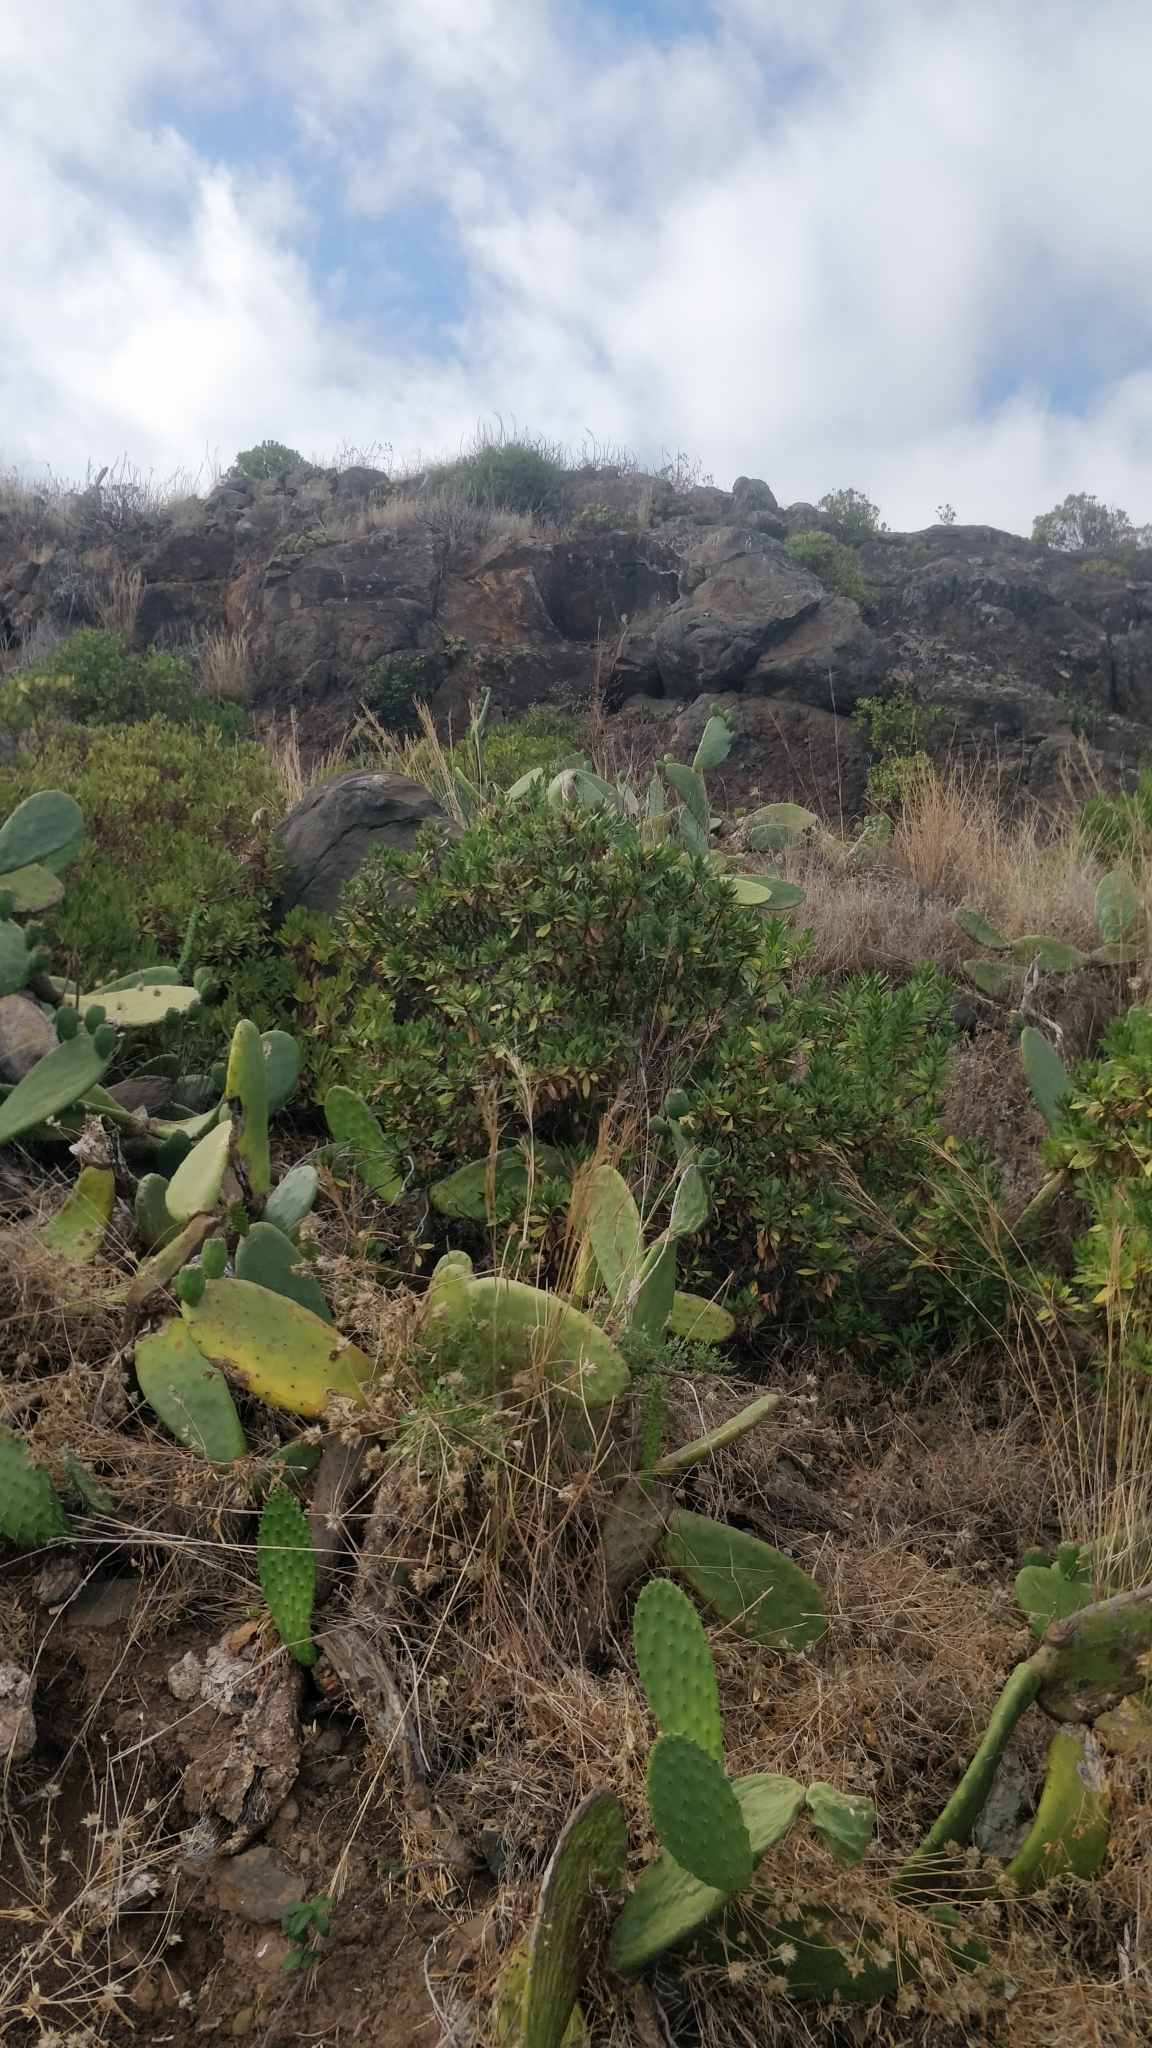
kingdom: Plantae
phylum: Tracheophyta
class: Magnoliopsida
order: Lamiales
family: Plantaginaceae
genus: Globularia
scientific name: Globularia salicina
